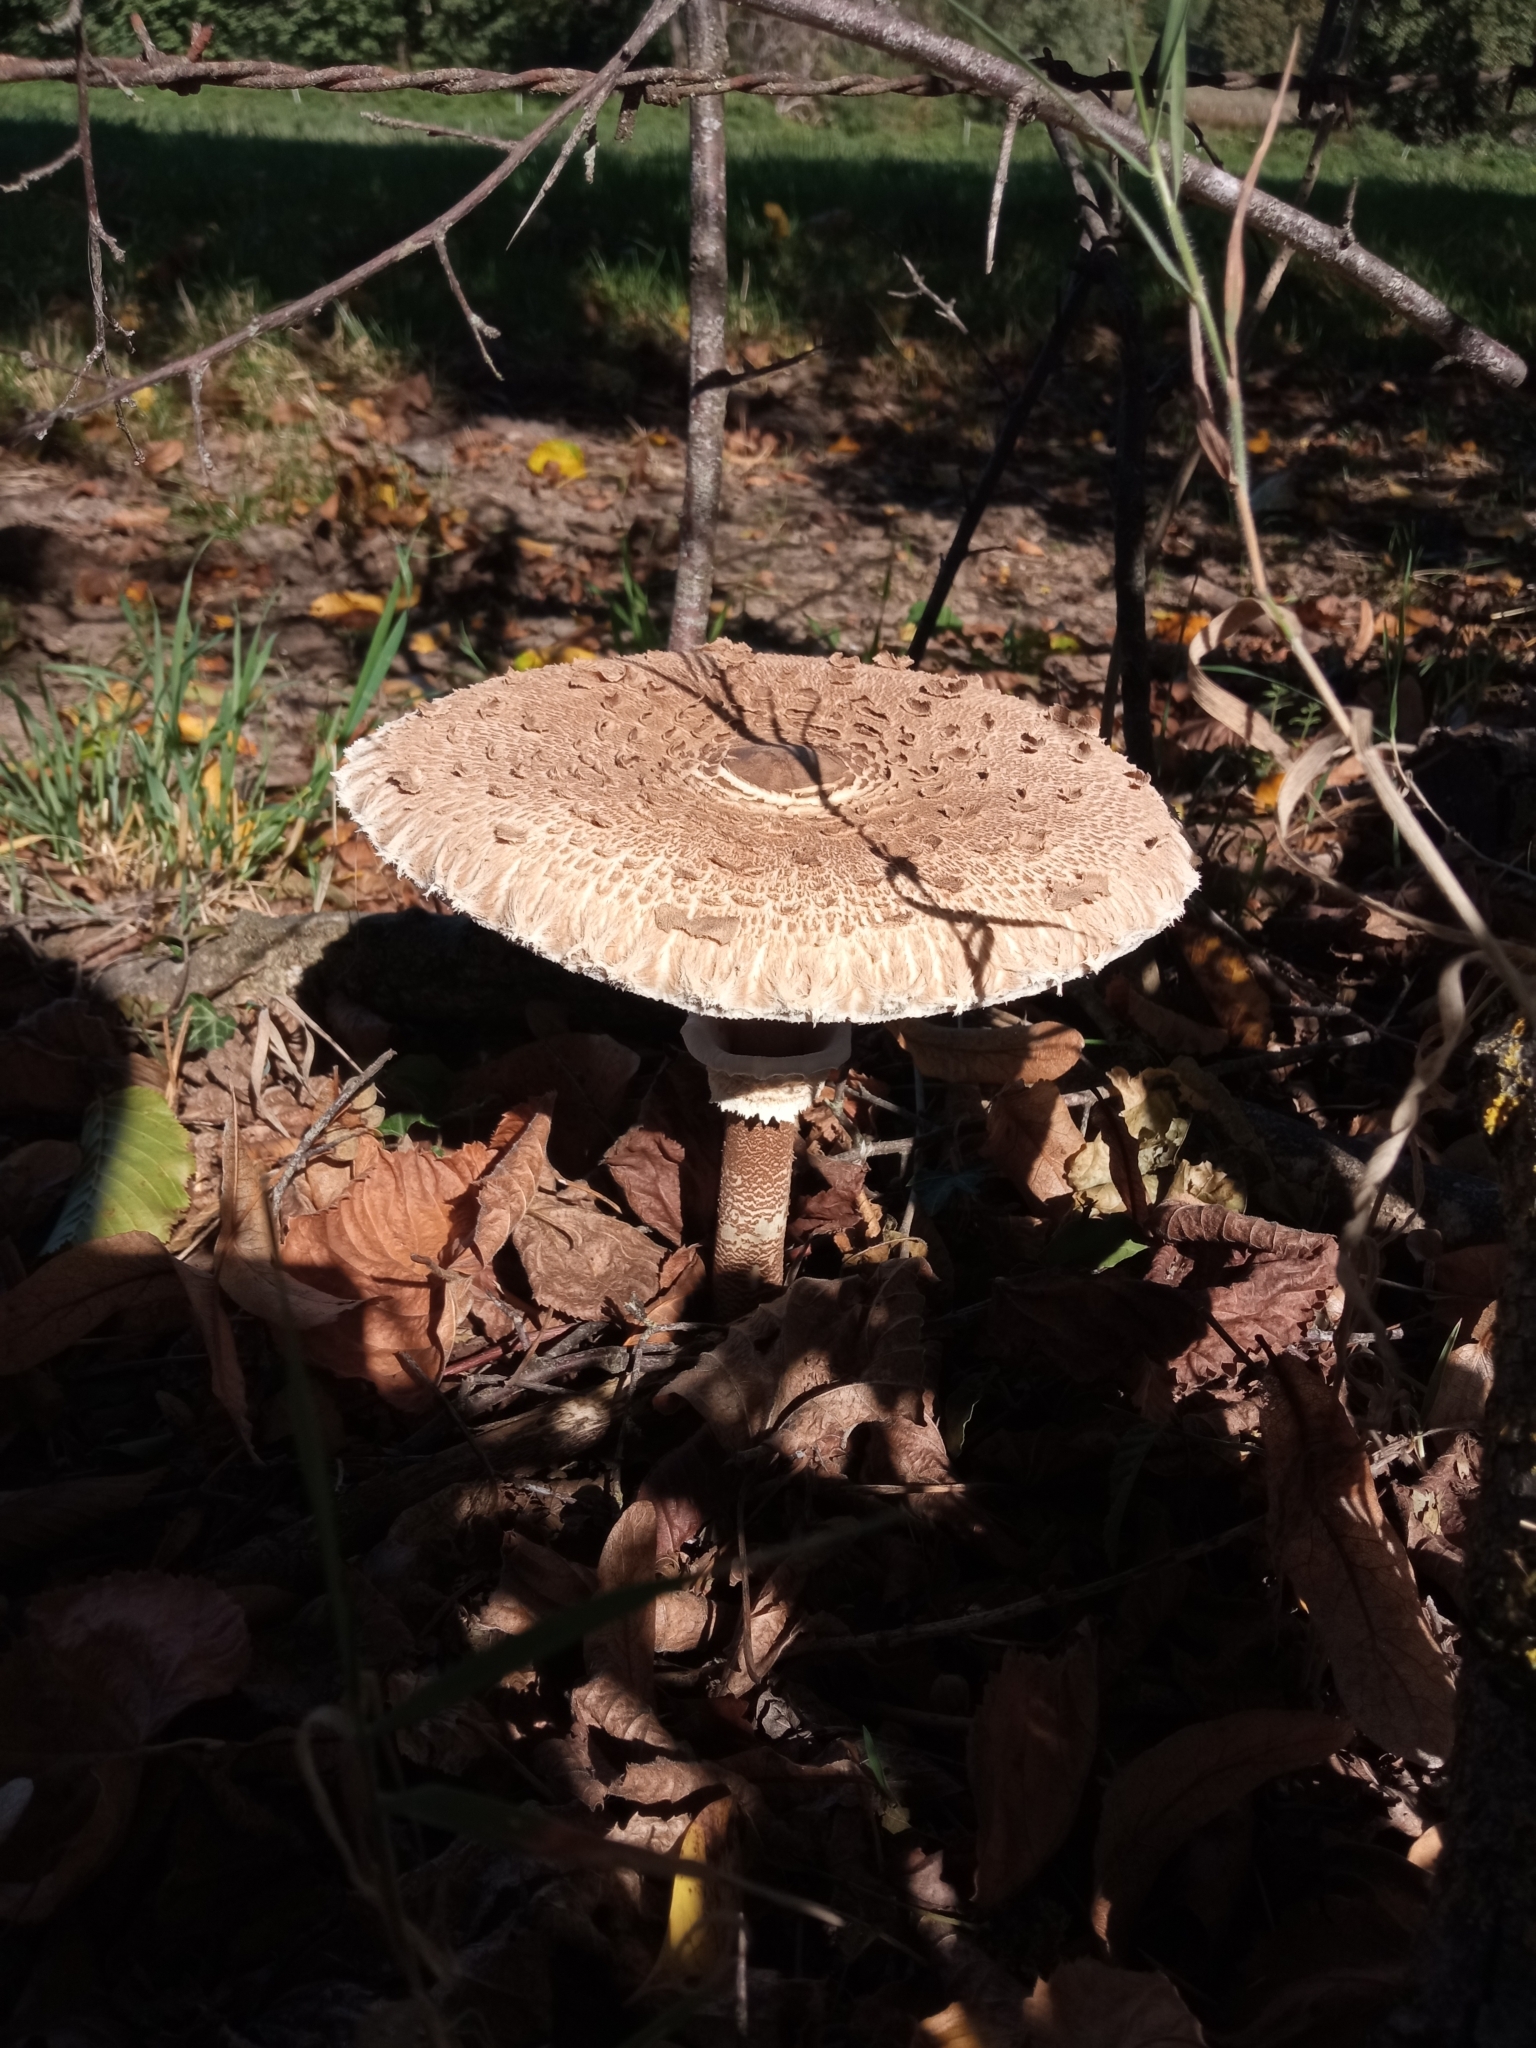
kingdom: Fungi
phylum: Basidiomycota
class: Agaricomycetes
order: Agaricales
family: Agaricaceae
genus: Macrolepiota
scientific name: Macrolepiota procera
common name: Parasol
